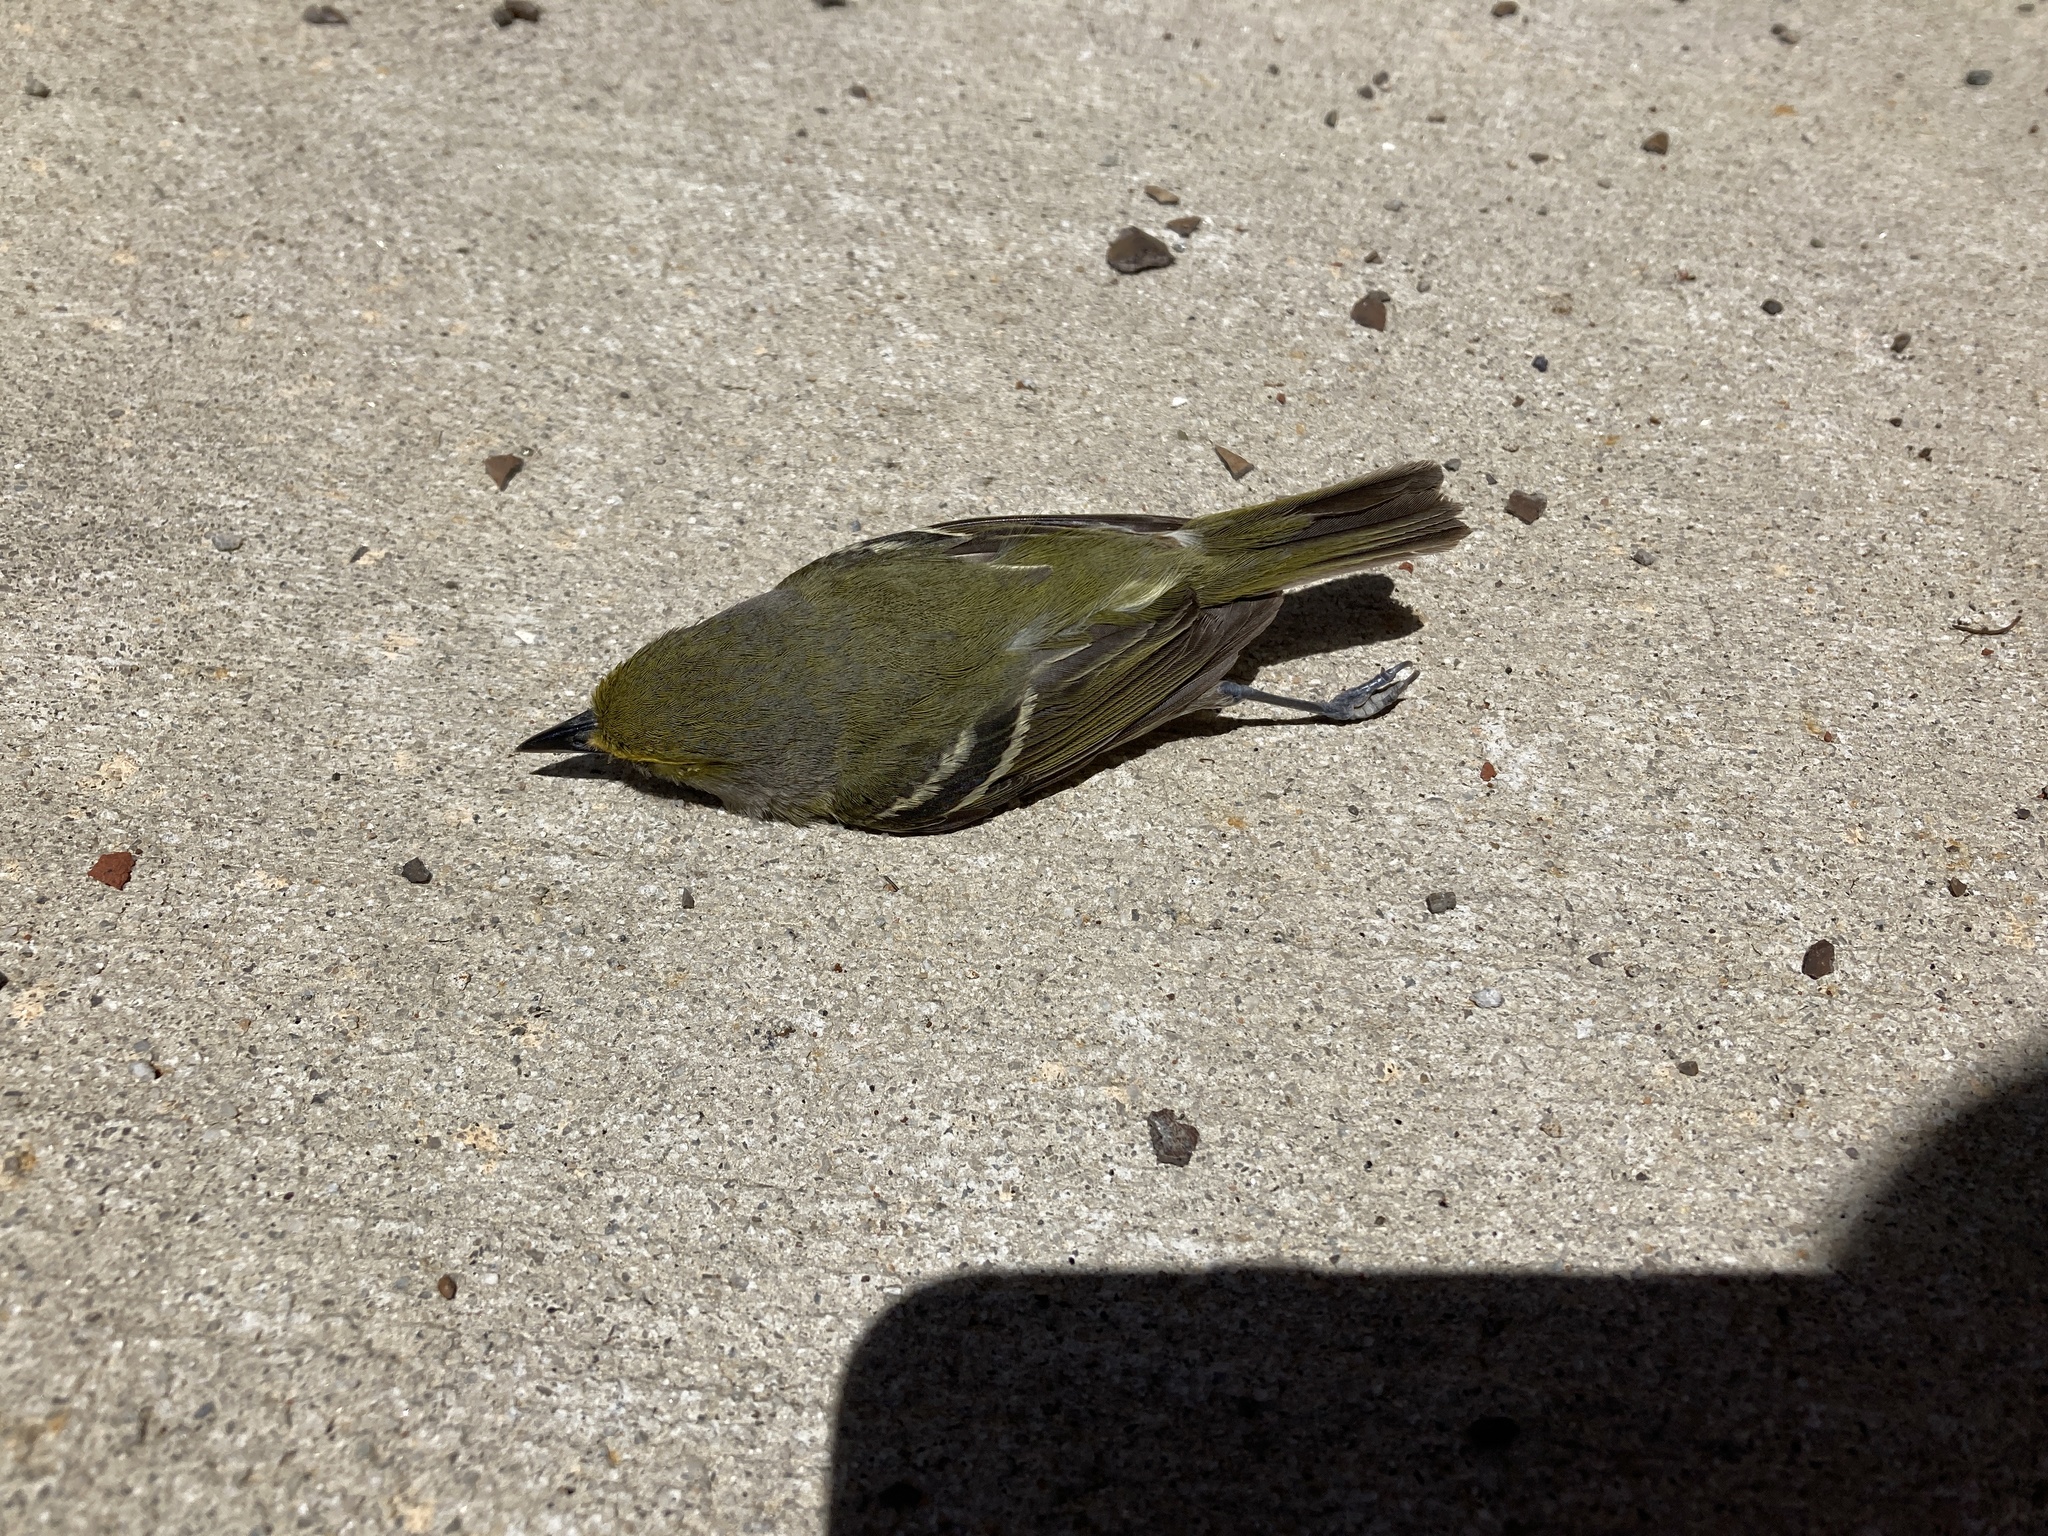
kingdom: Animalia
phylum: Chordata
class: Aves
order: Passeriformes
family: Vireonidae
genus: Vireo
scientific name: Vireo griseus
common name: White-eyed vireo
